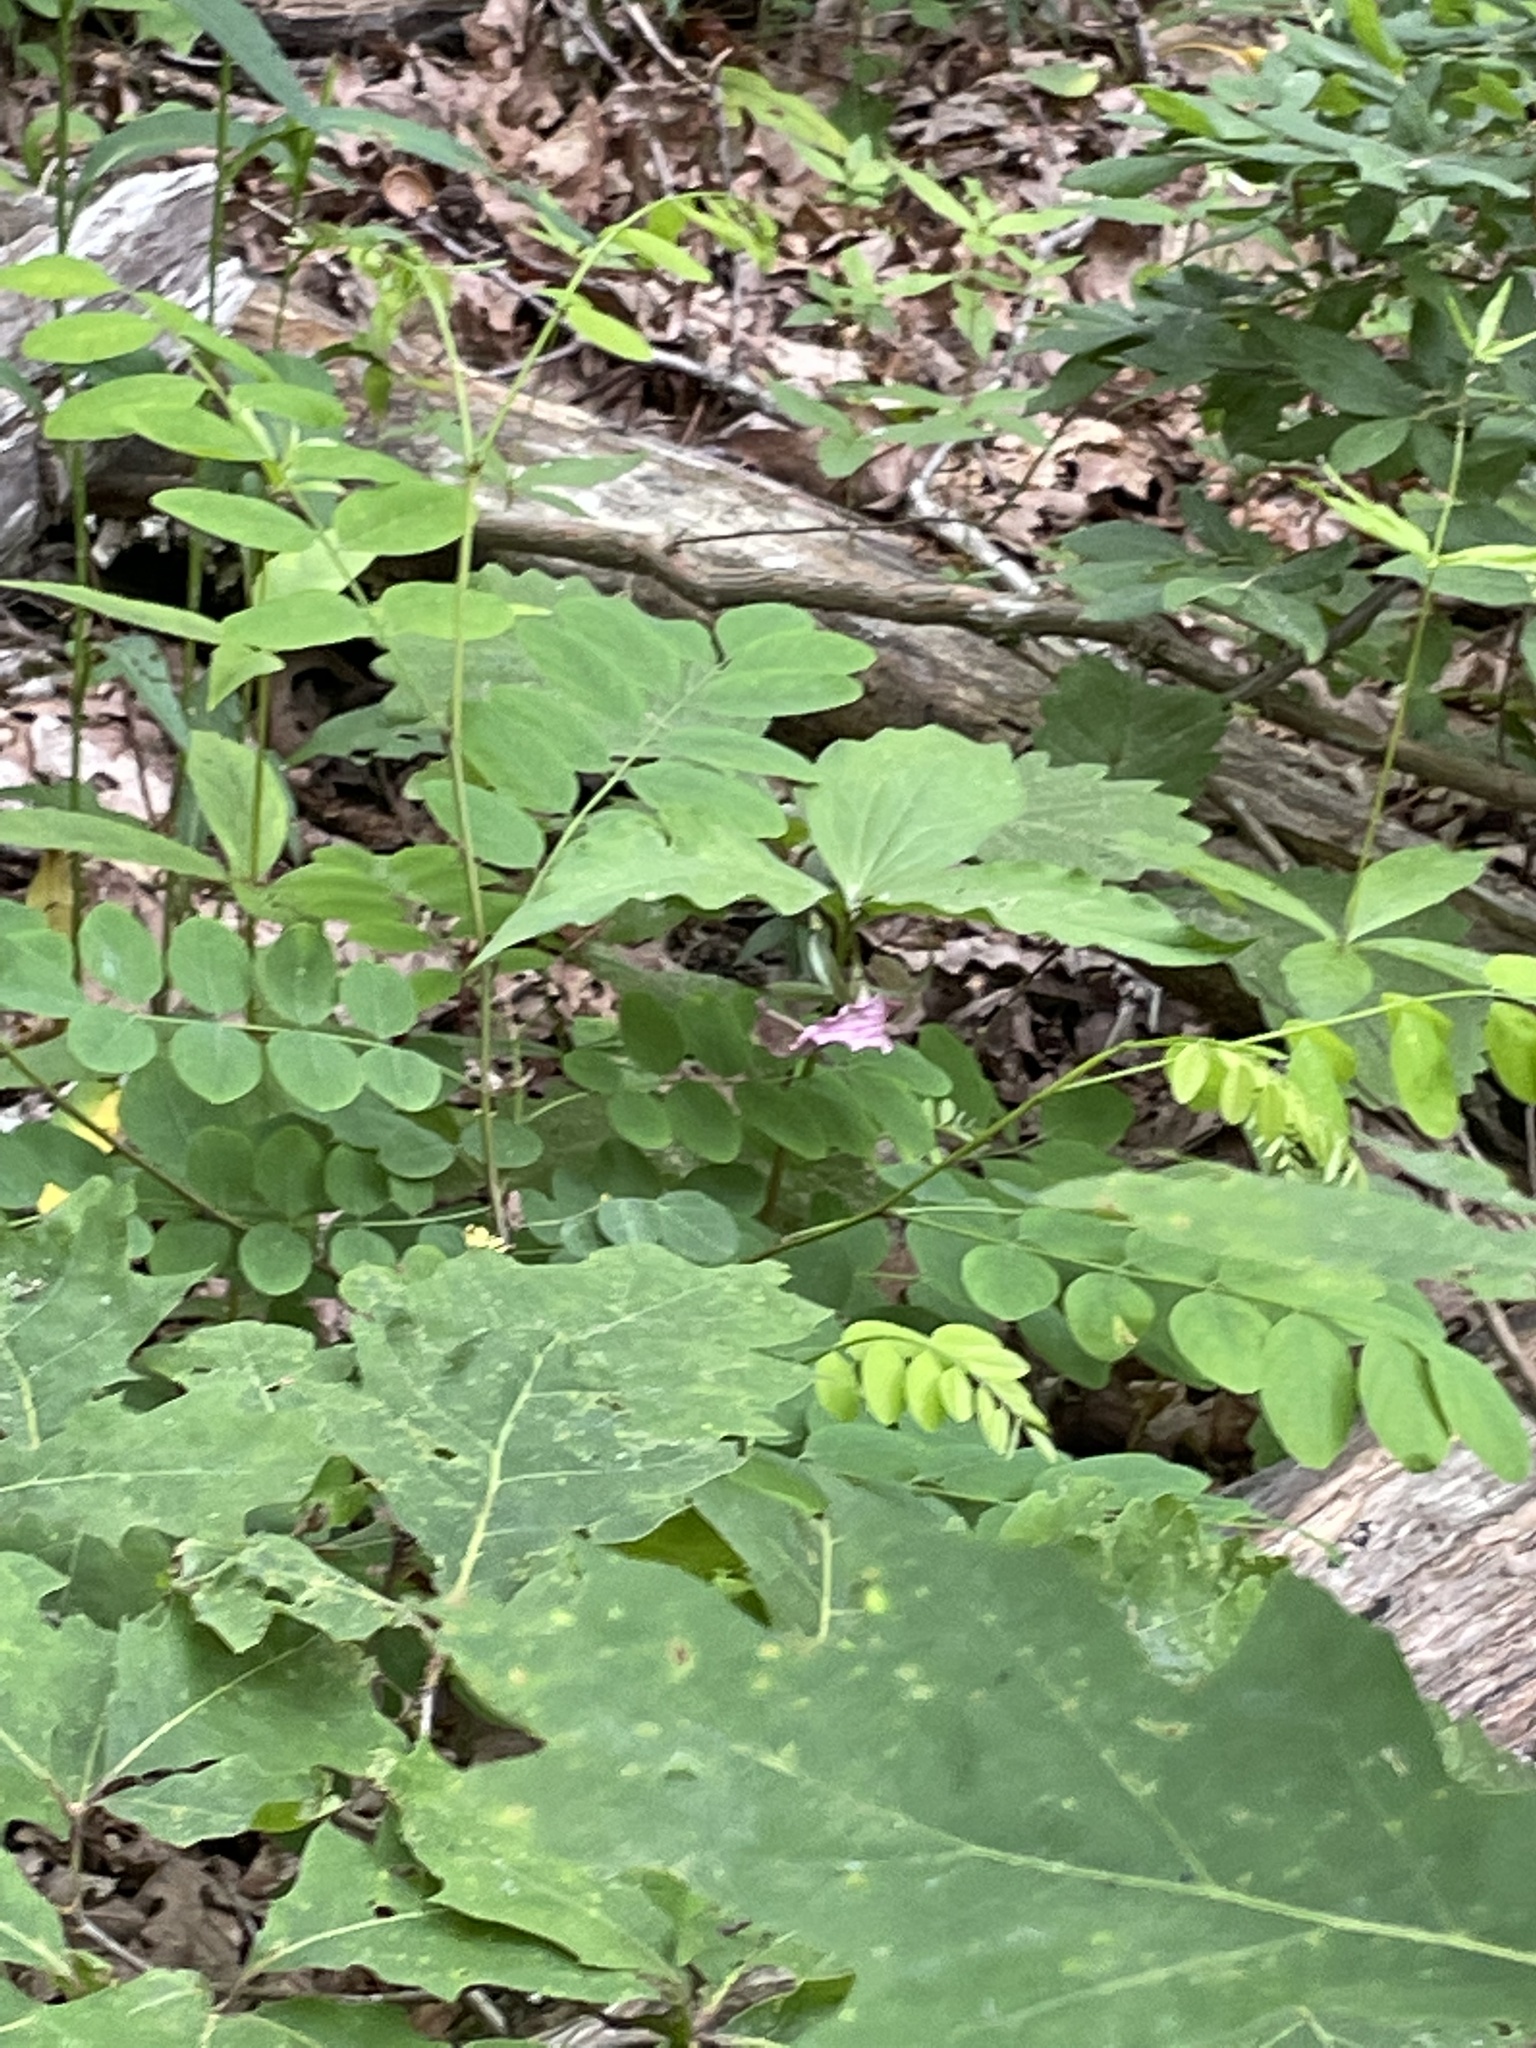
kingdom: Plantae
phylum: Tracheophyta
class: Liliopsida
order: Liliales
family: Melanthiaceae
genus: Trillium
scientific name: Trillium catesbaei
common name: Bashful trillium
